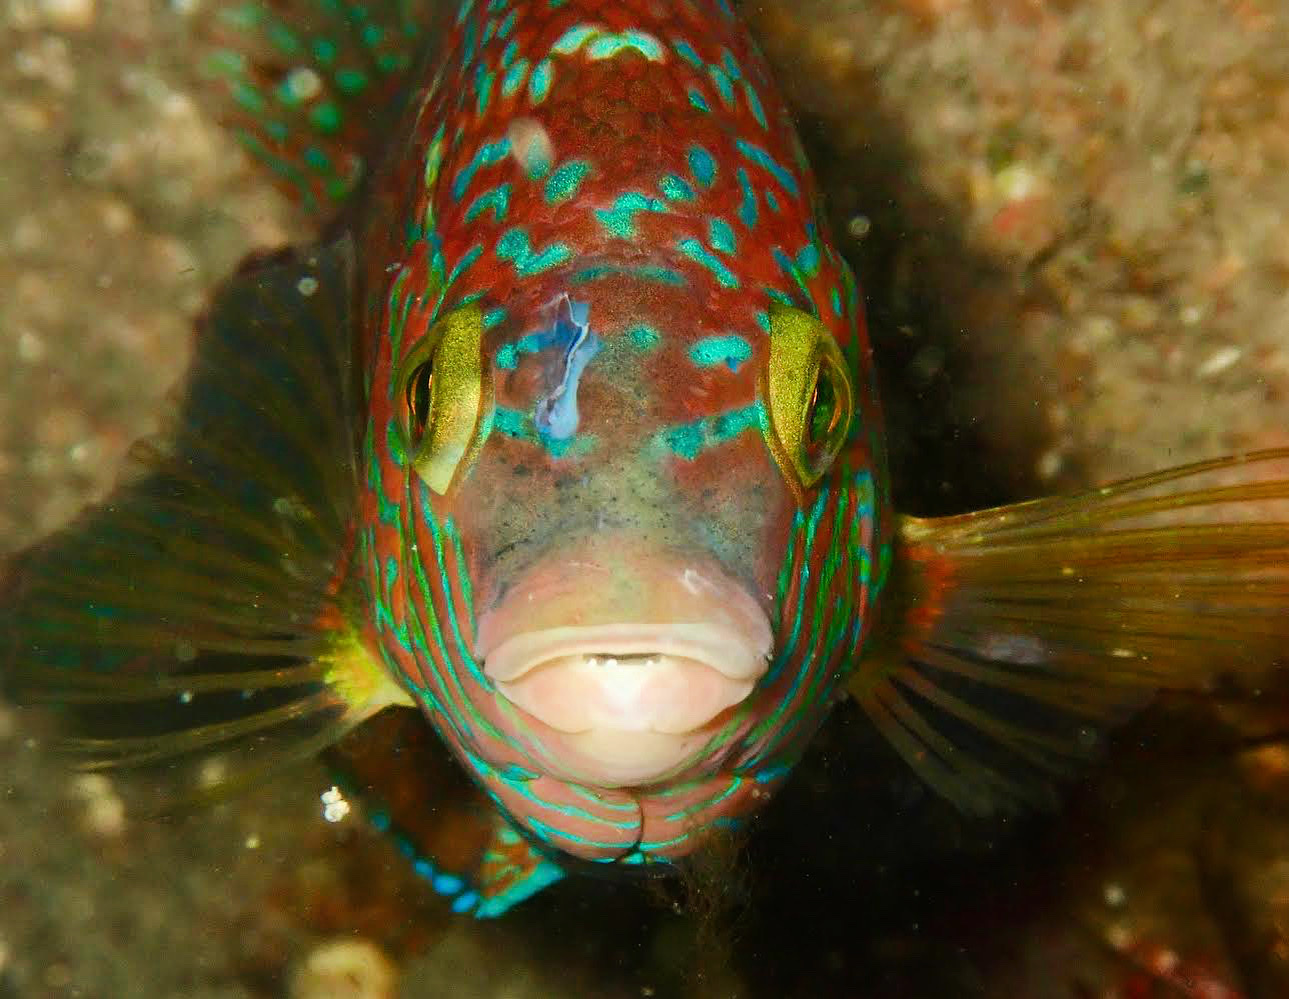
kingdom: Animalia
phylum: Chordata
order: Perciformes
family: Labridae
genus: Symphodus
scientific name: Symphodus melops
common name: Corkwing
